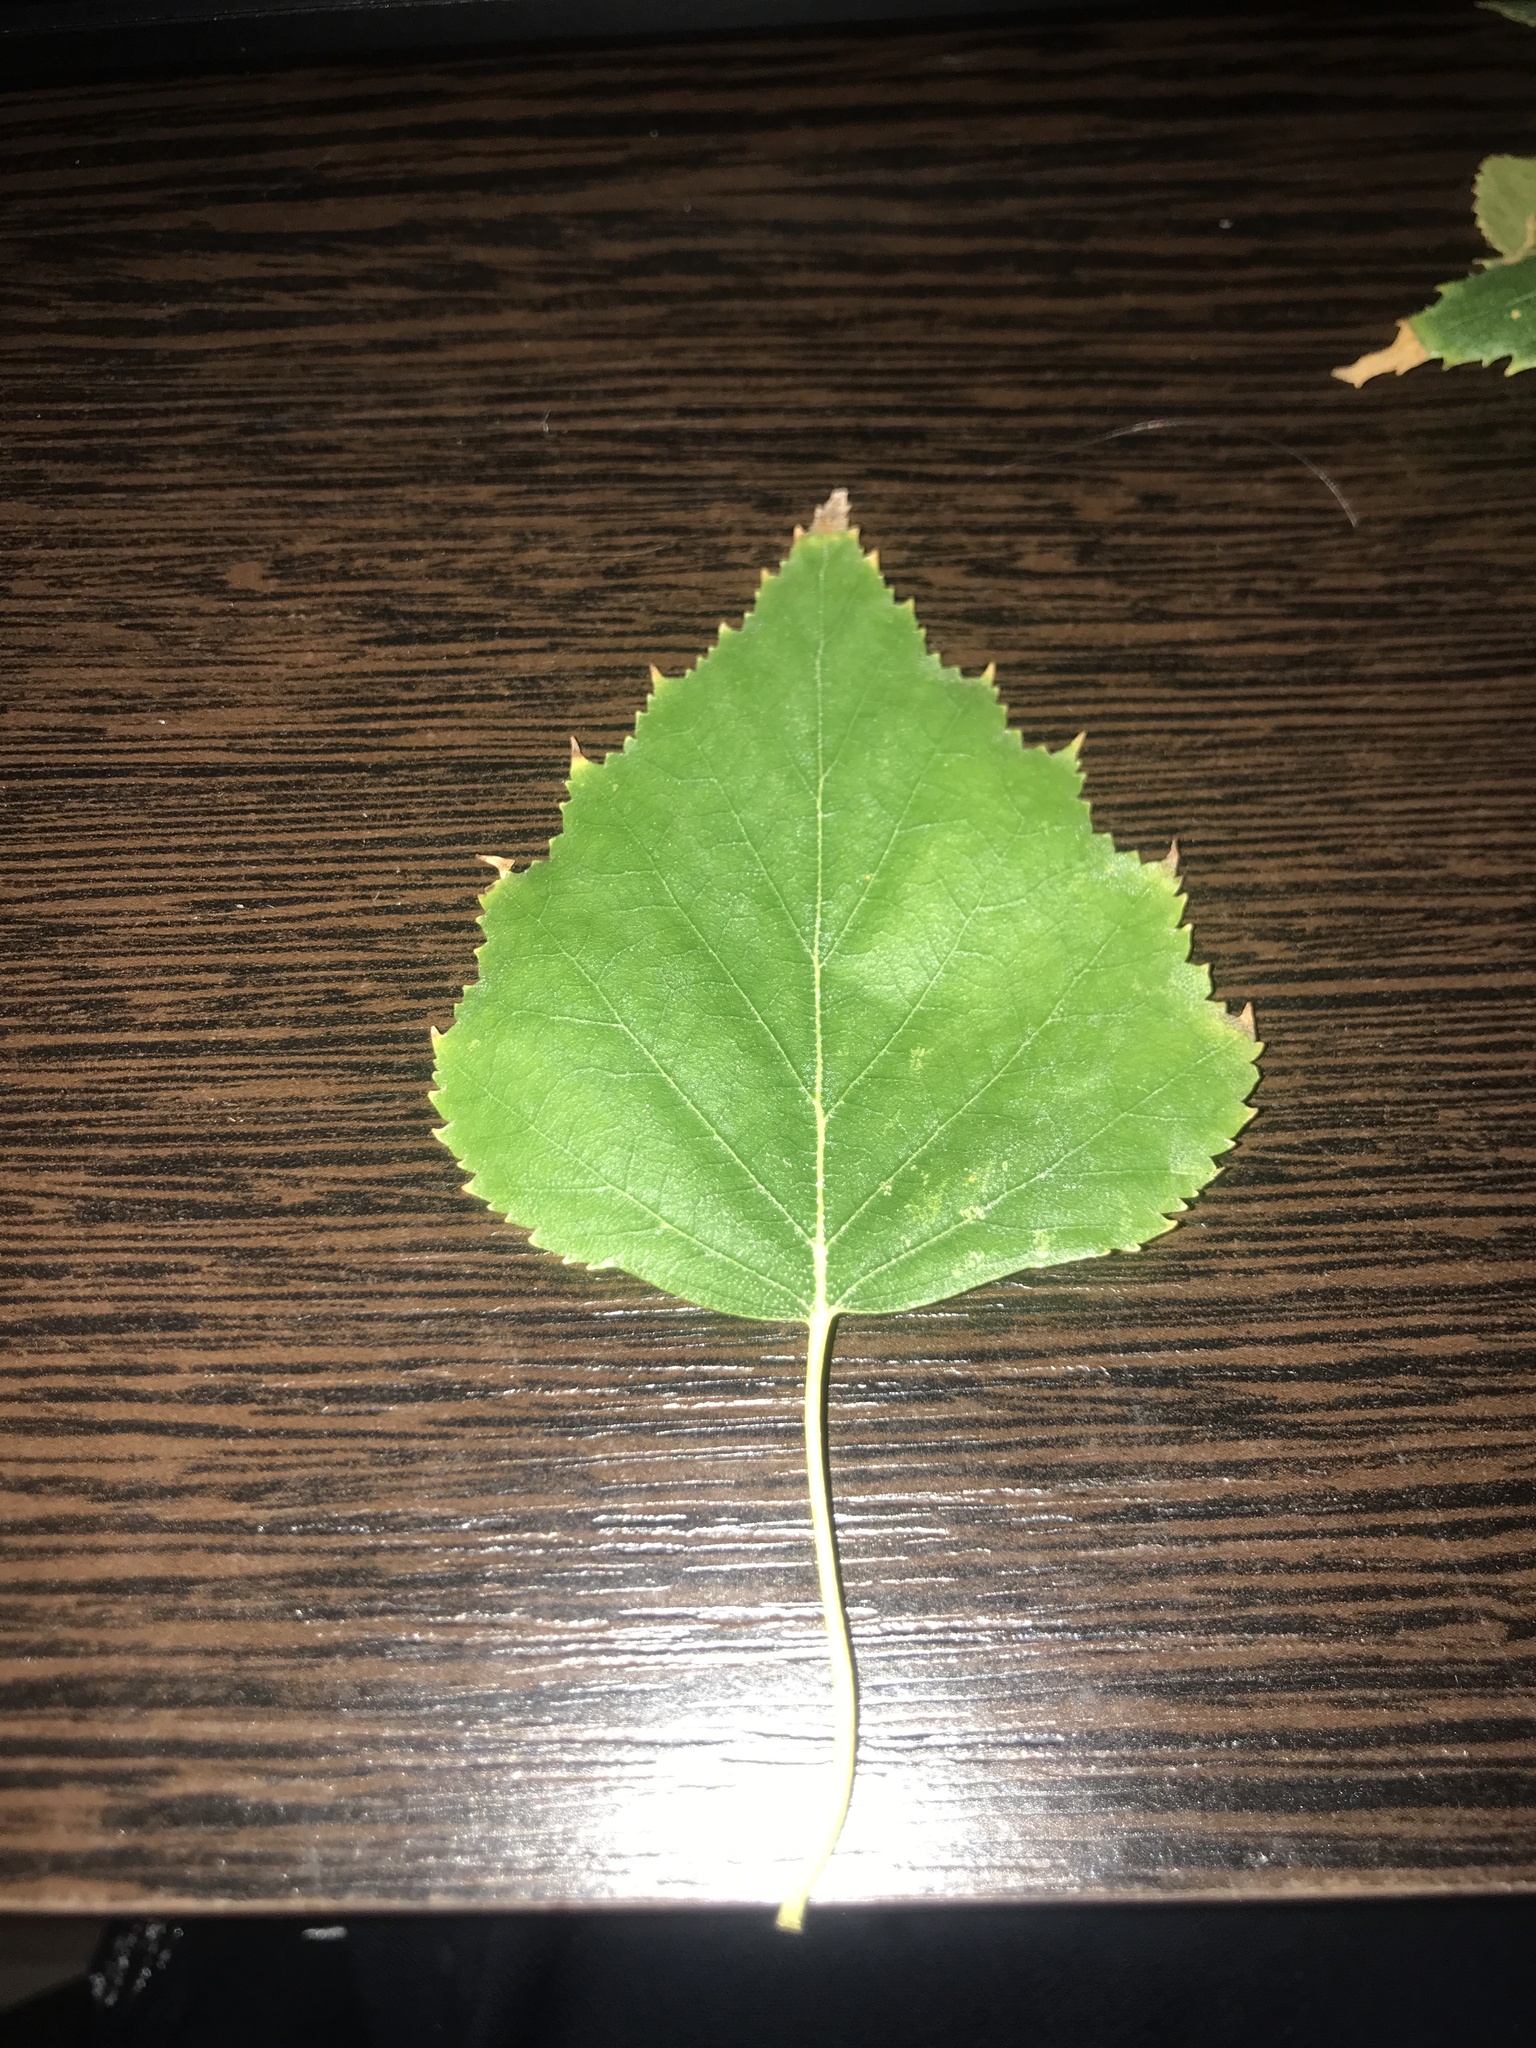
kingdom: Plantae
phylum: Tracheophyta
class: Magnoliopsida
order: Fagales
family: Betulaceae
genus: Betula
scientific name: Betula
